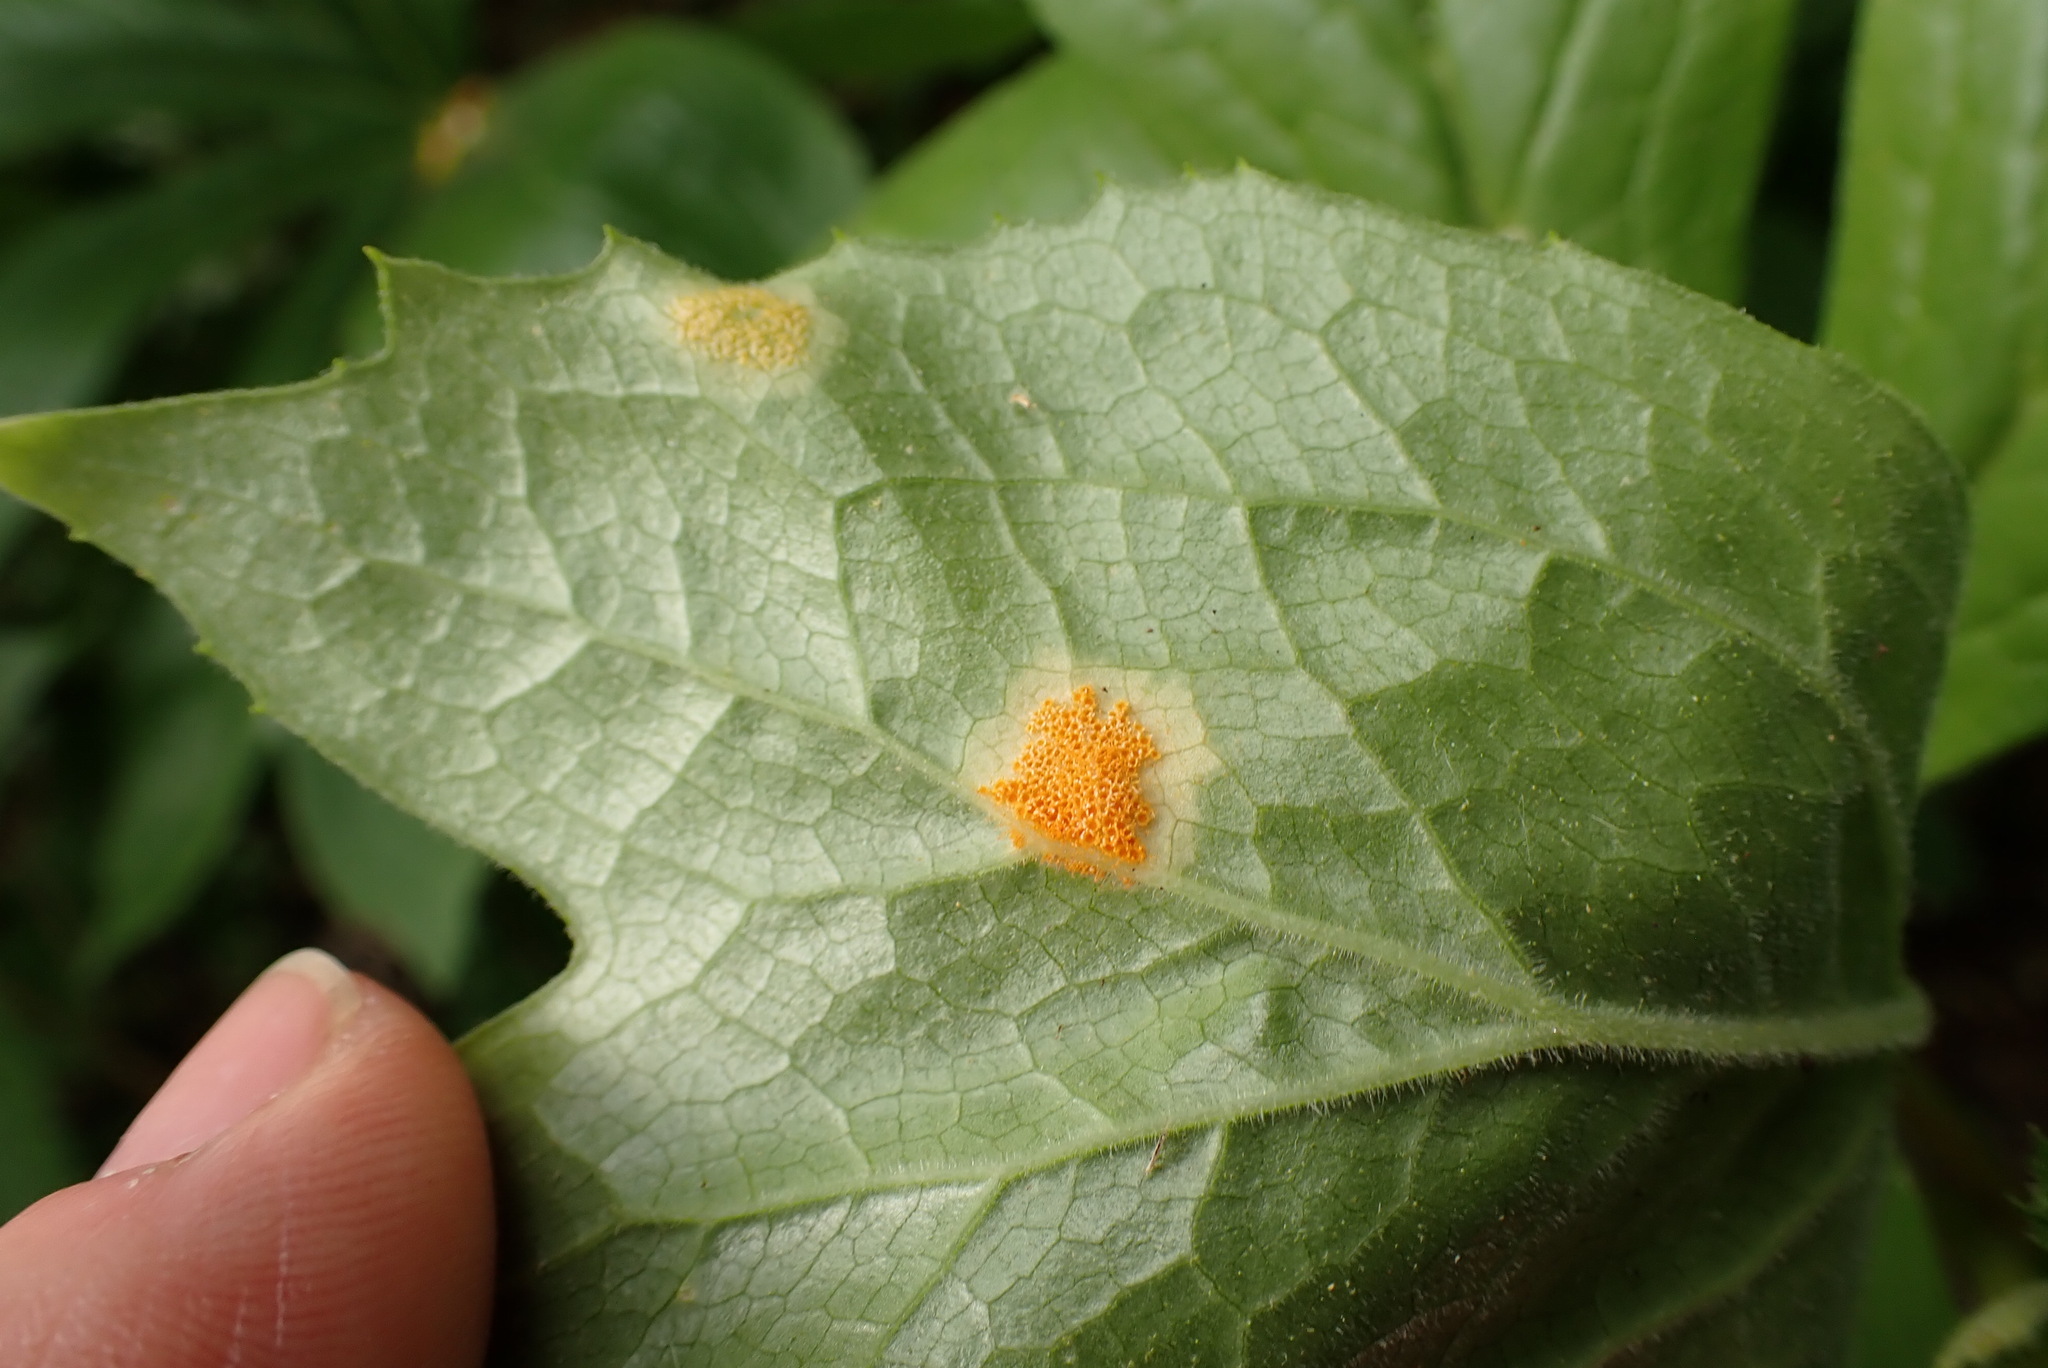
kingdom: Fungi
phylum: Basidiomycota
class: Pucciniomycetes
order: Pucciniales
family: Pucciniaceae
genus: Puccinia
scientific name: Puccinia podophylli
